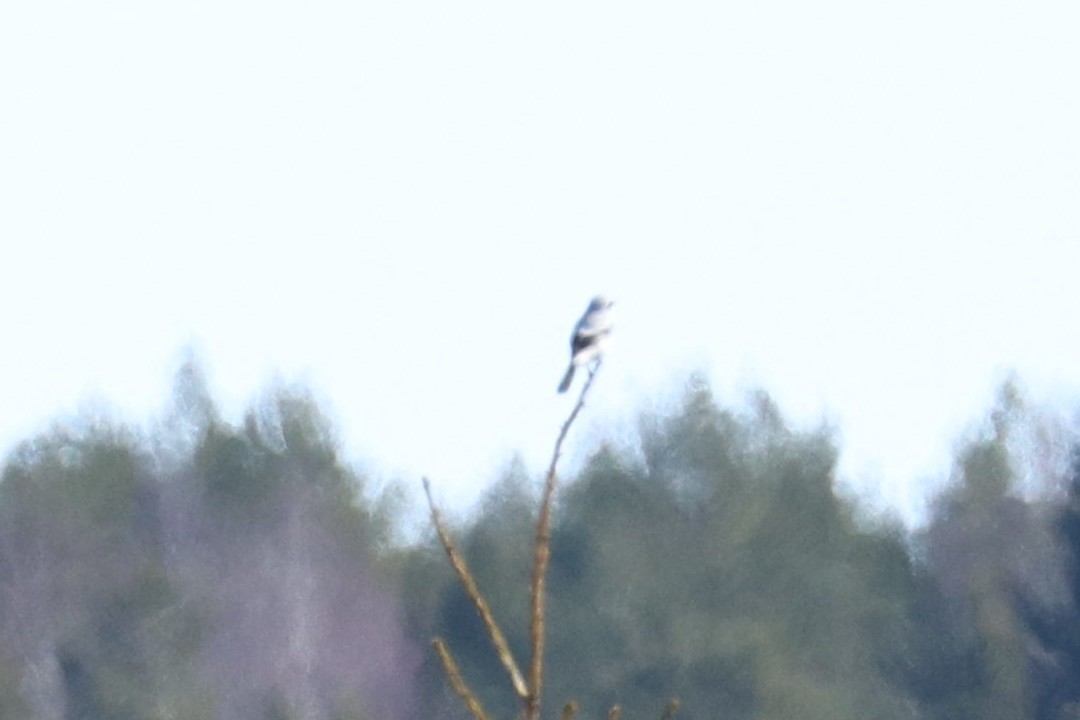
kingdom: Animalia
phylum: Chordata
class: Aves
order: Passeriformes
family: Laniidae
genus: Lanius
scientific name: Lanius excubitor
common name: Great grey shrike
